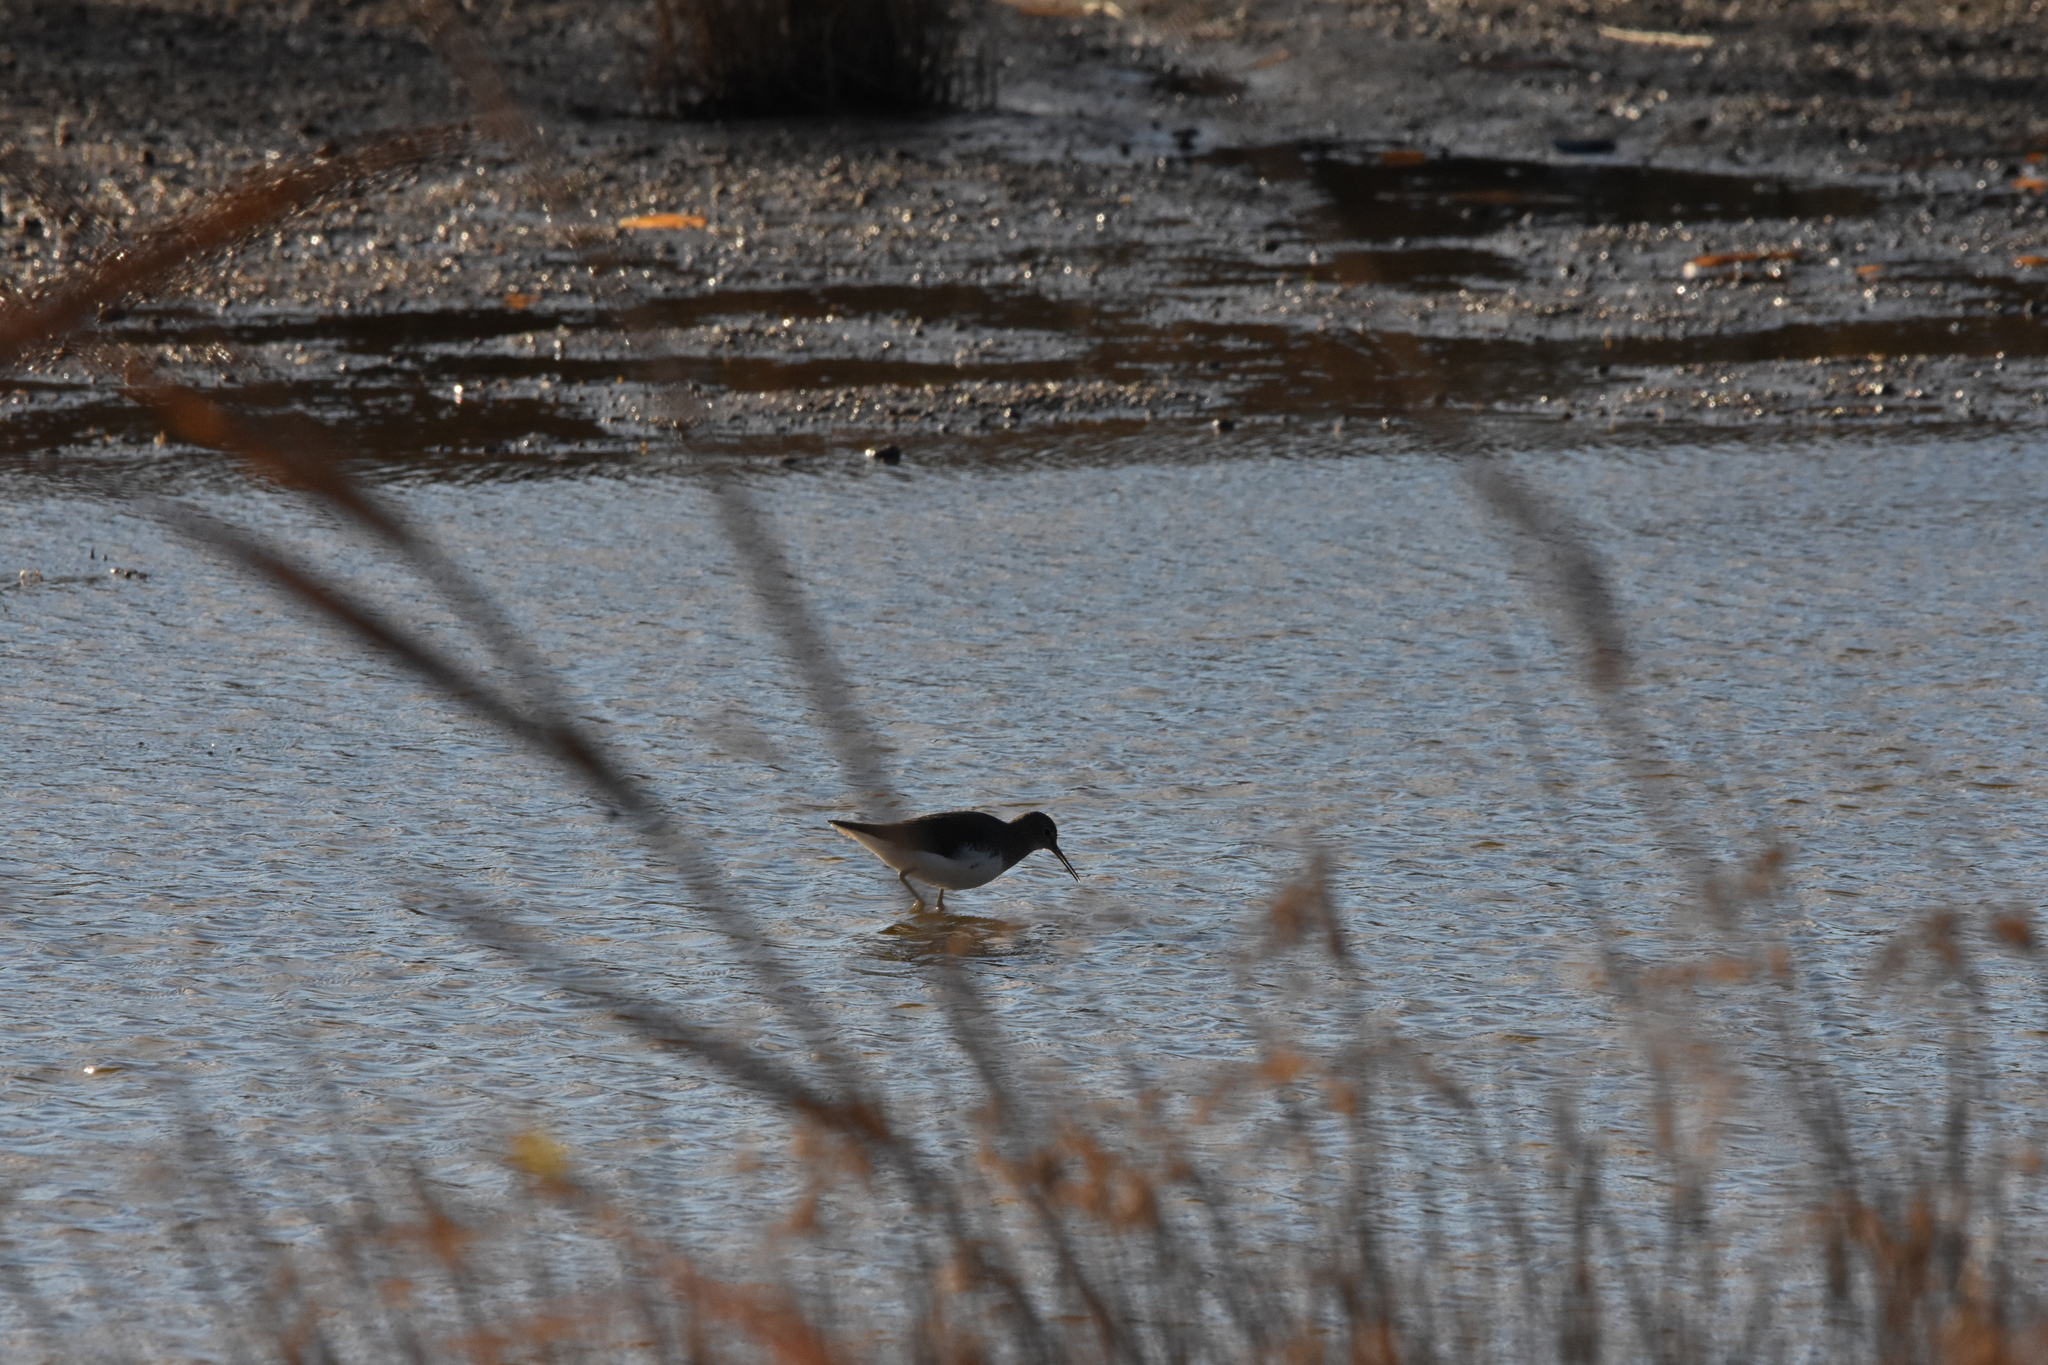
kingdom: Animalia
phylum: Chordata
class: Aves
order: Charadriiformes
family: Scolopacidae
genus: Tringa
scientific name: Tringa ochropus
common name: Green sandpiper
